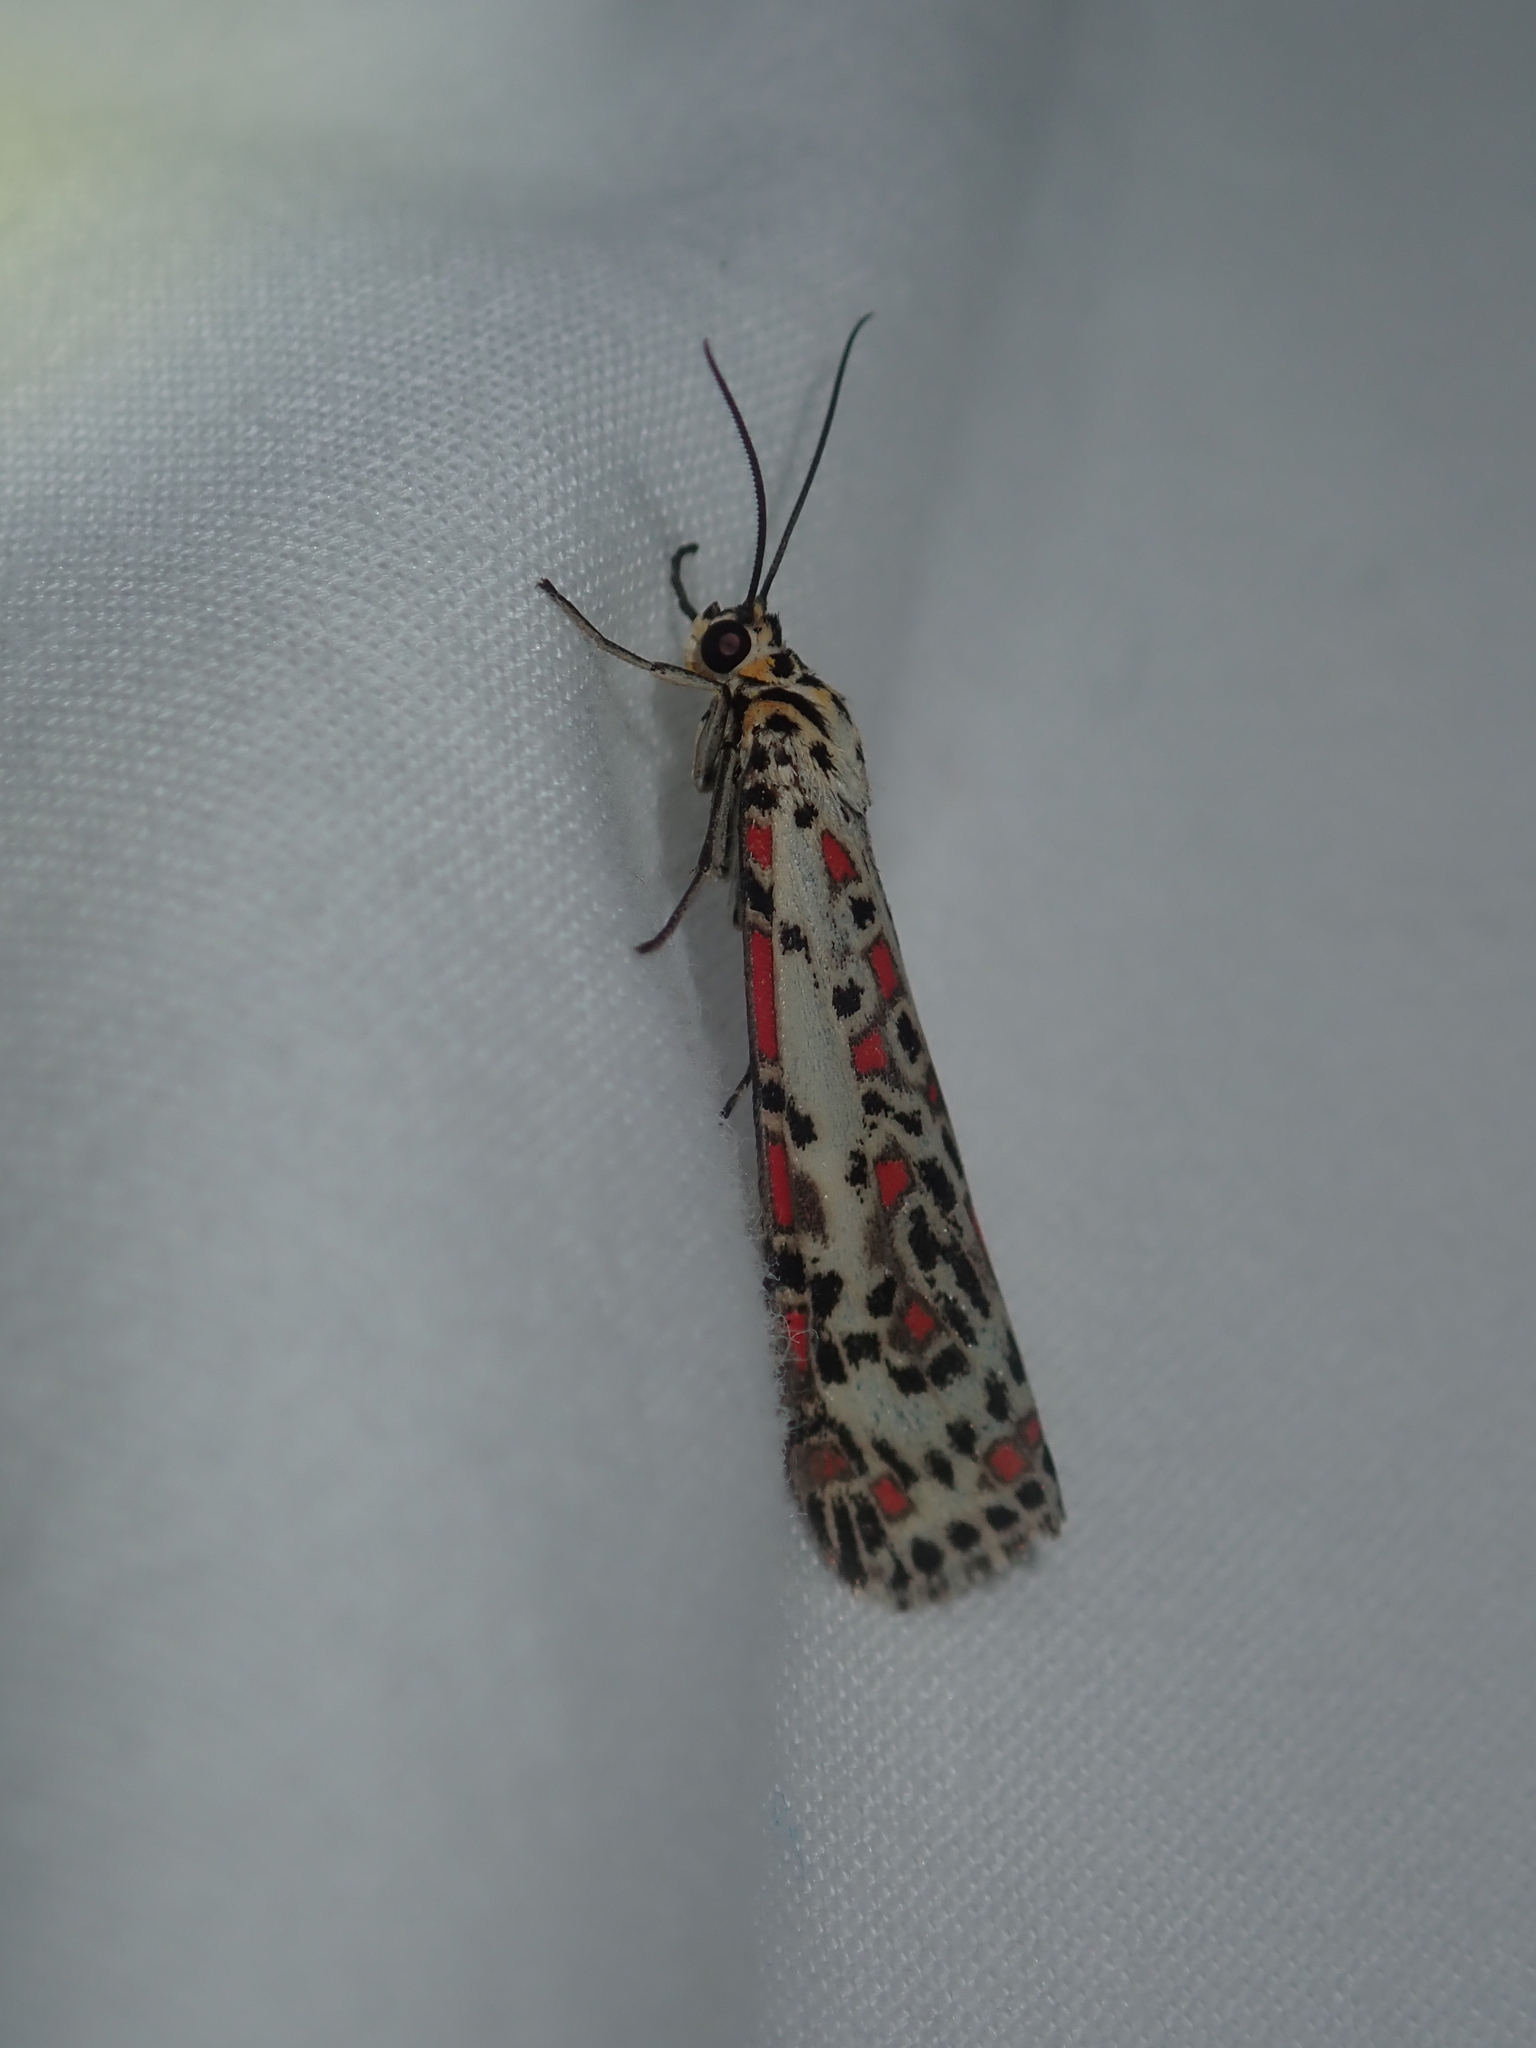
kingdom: Animalia
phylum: Arthropoda
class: Insecta
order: Lepidoptera
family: Erebidae
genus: Utetheisa
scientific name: Utetheisa pulchelloides
